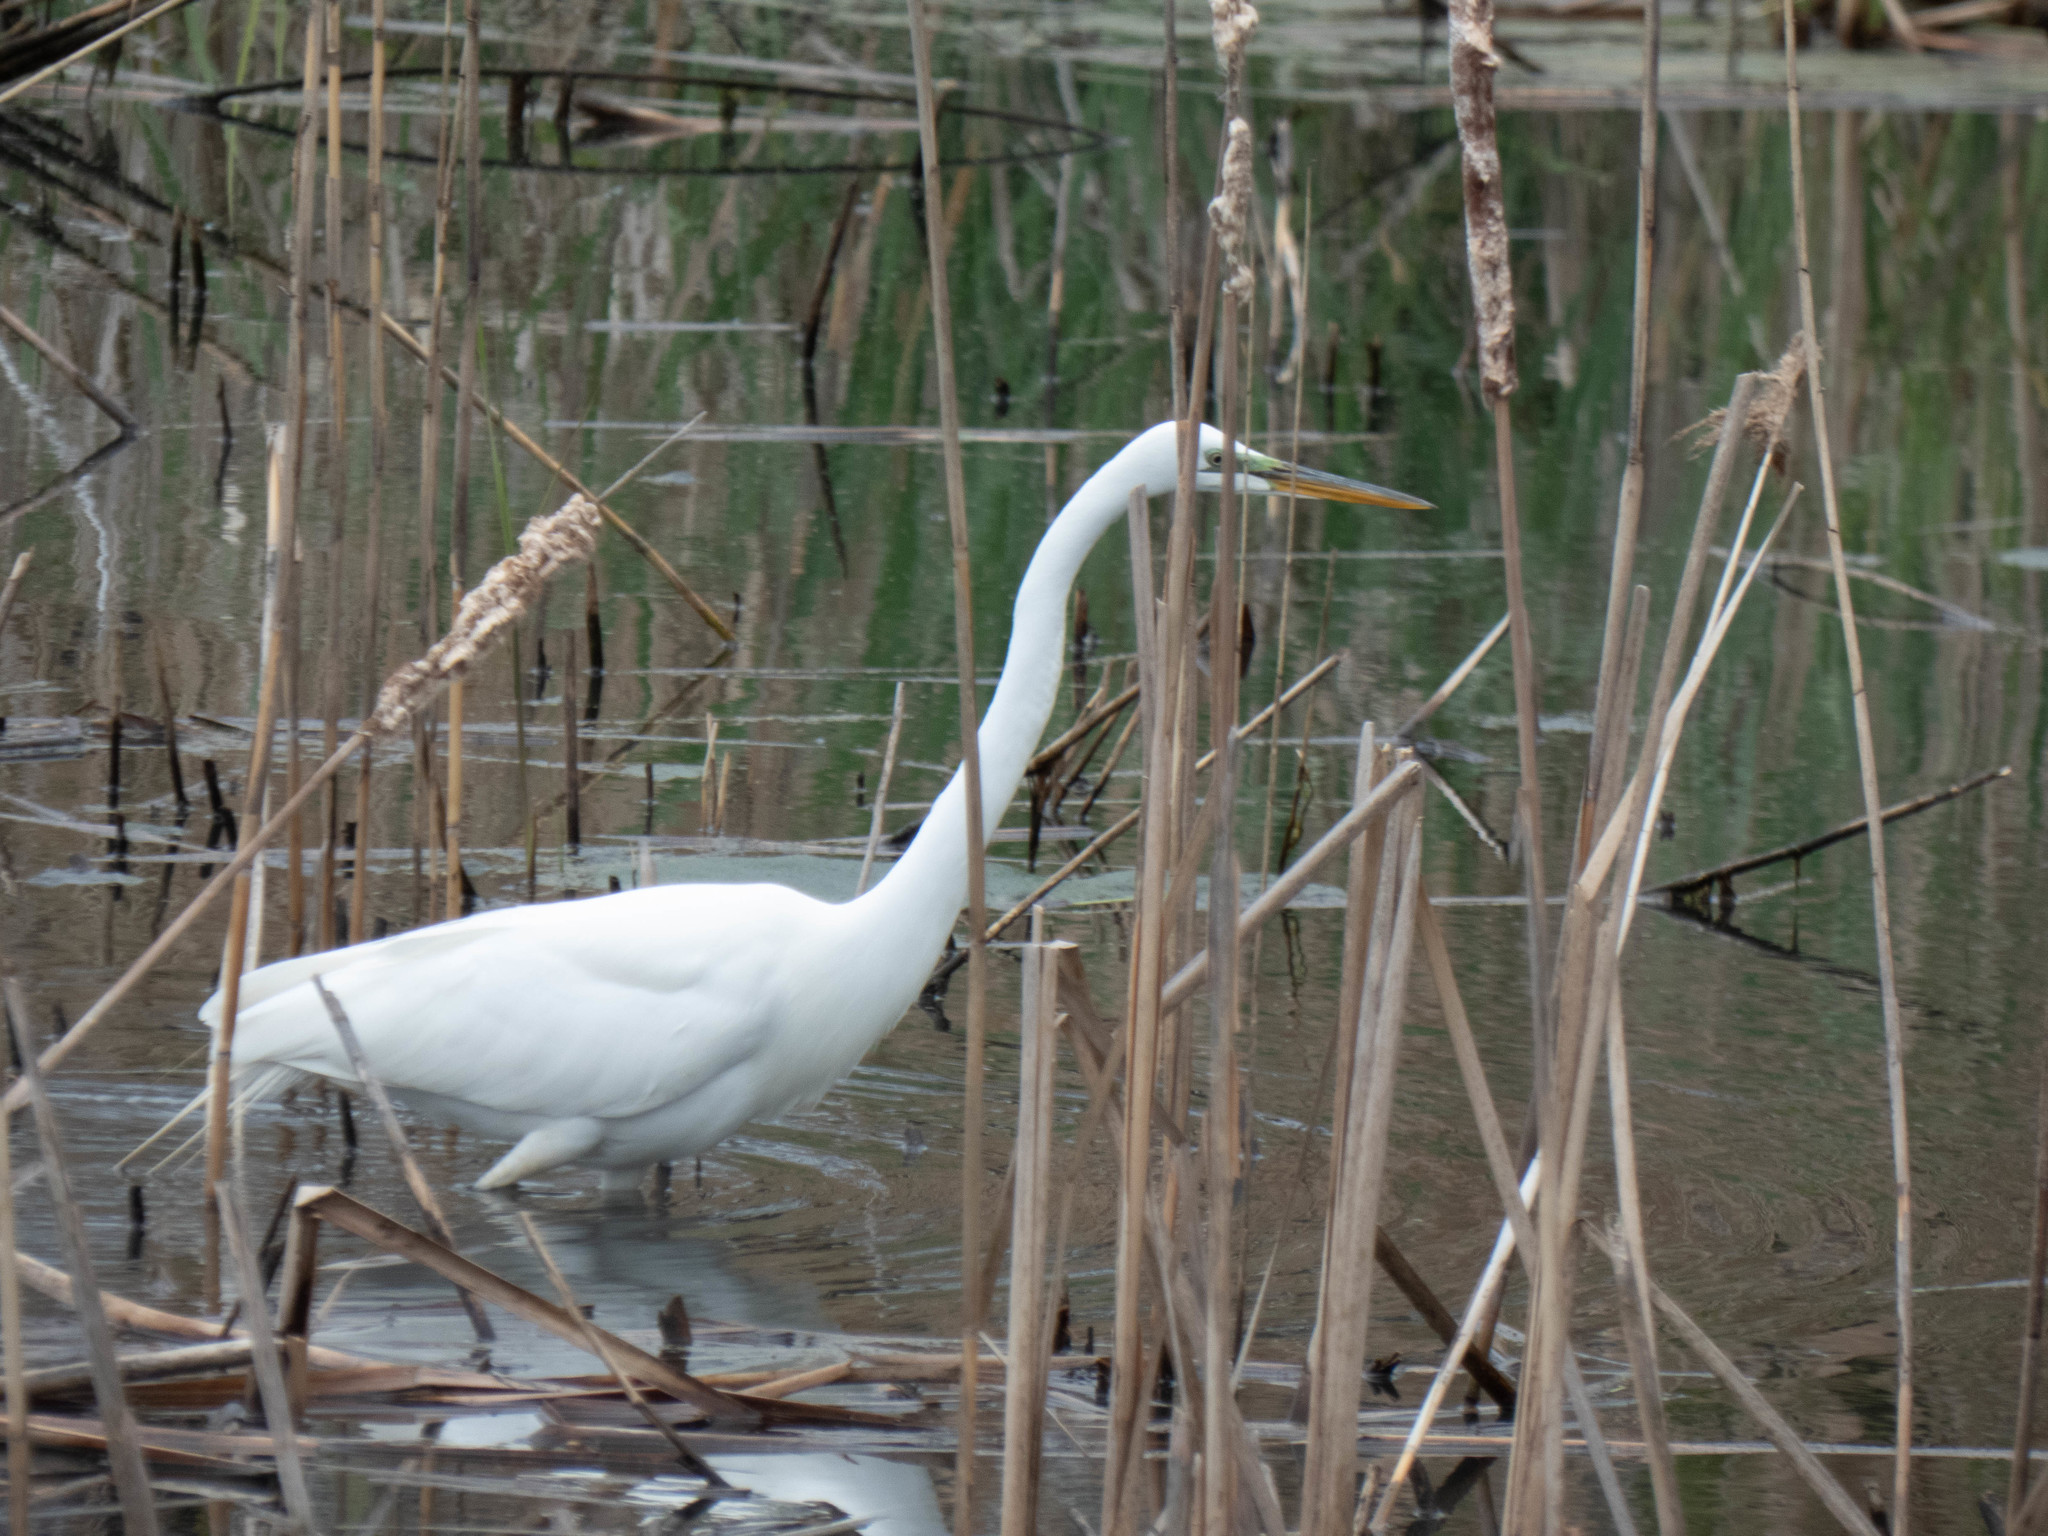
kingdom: Animalia
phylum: Chordata
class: Aves
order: Pelecaniformes
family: Ardeidae
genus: Ardea
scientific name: Ardea alba
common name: Great egret
